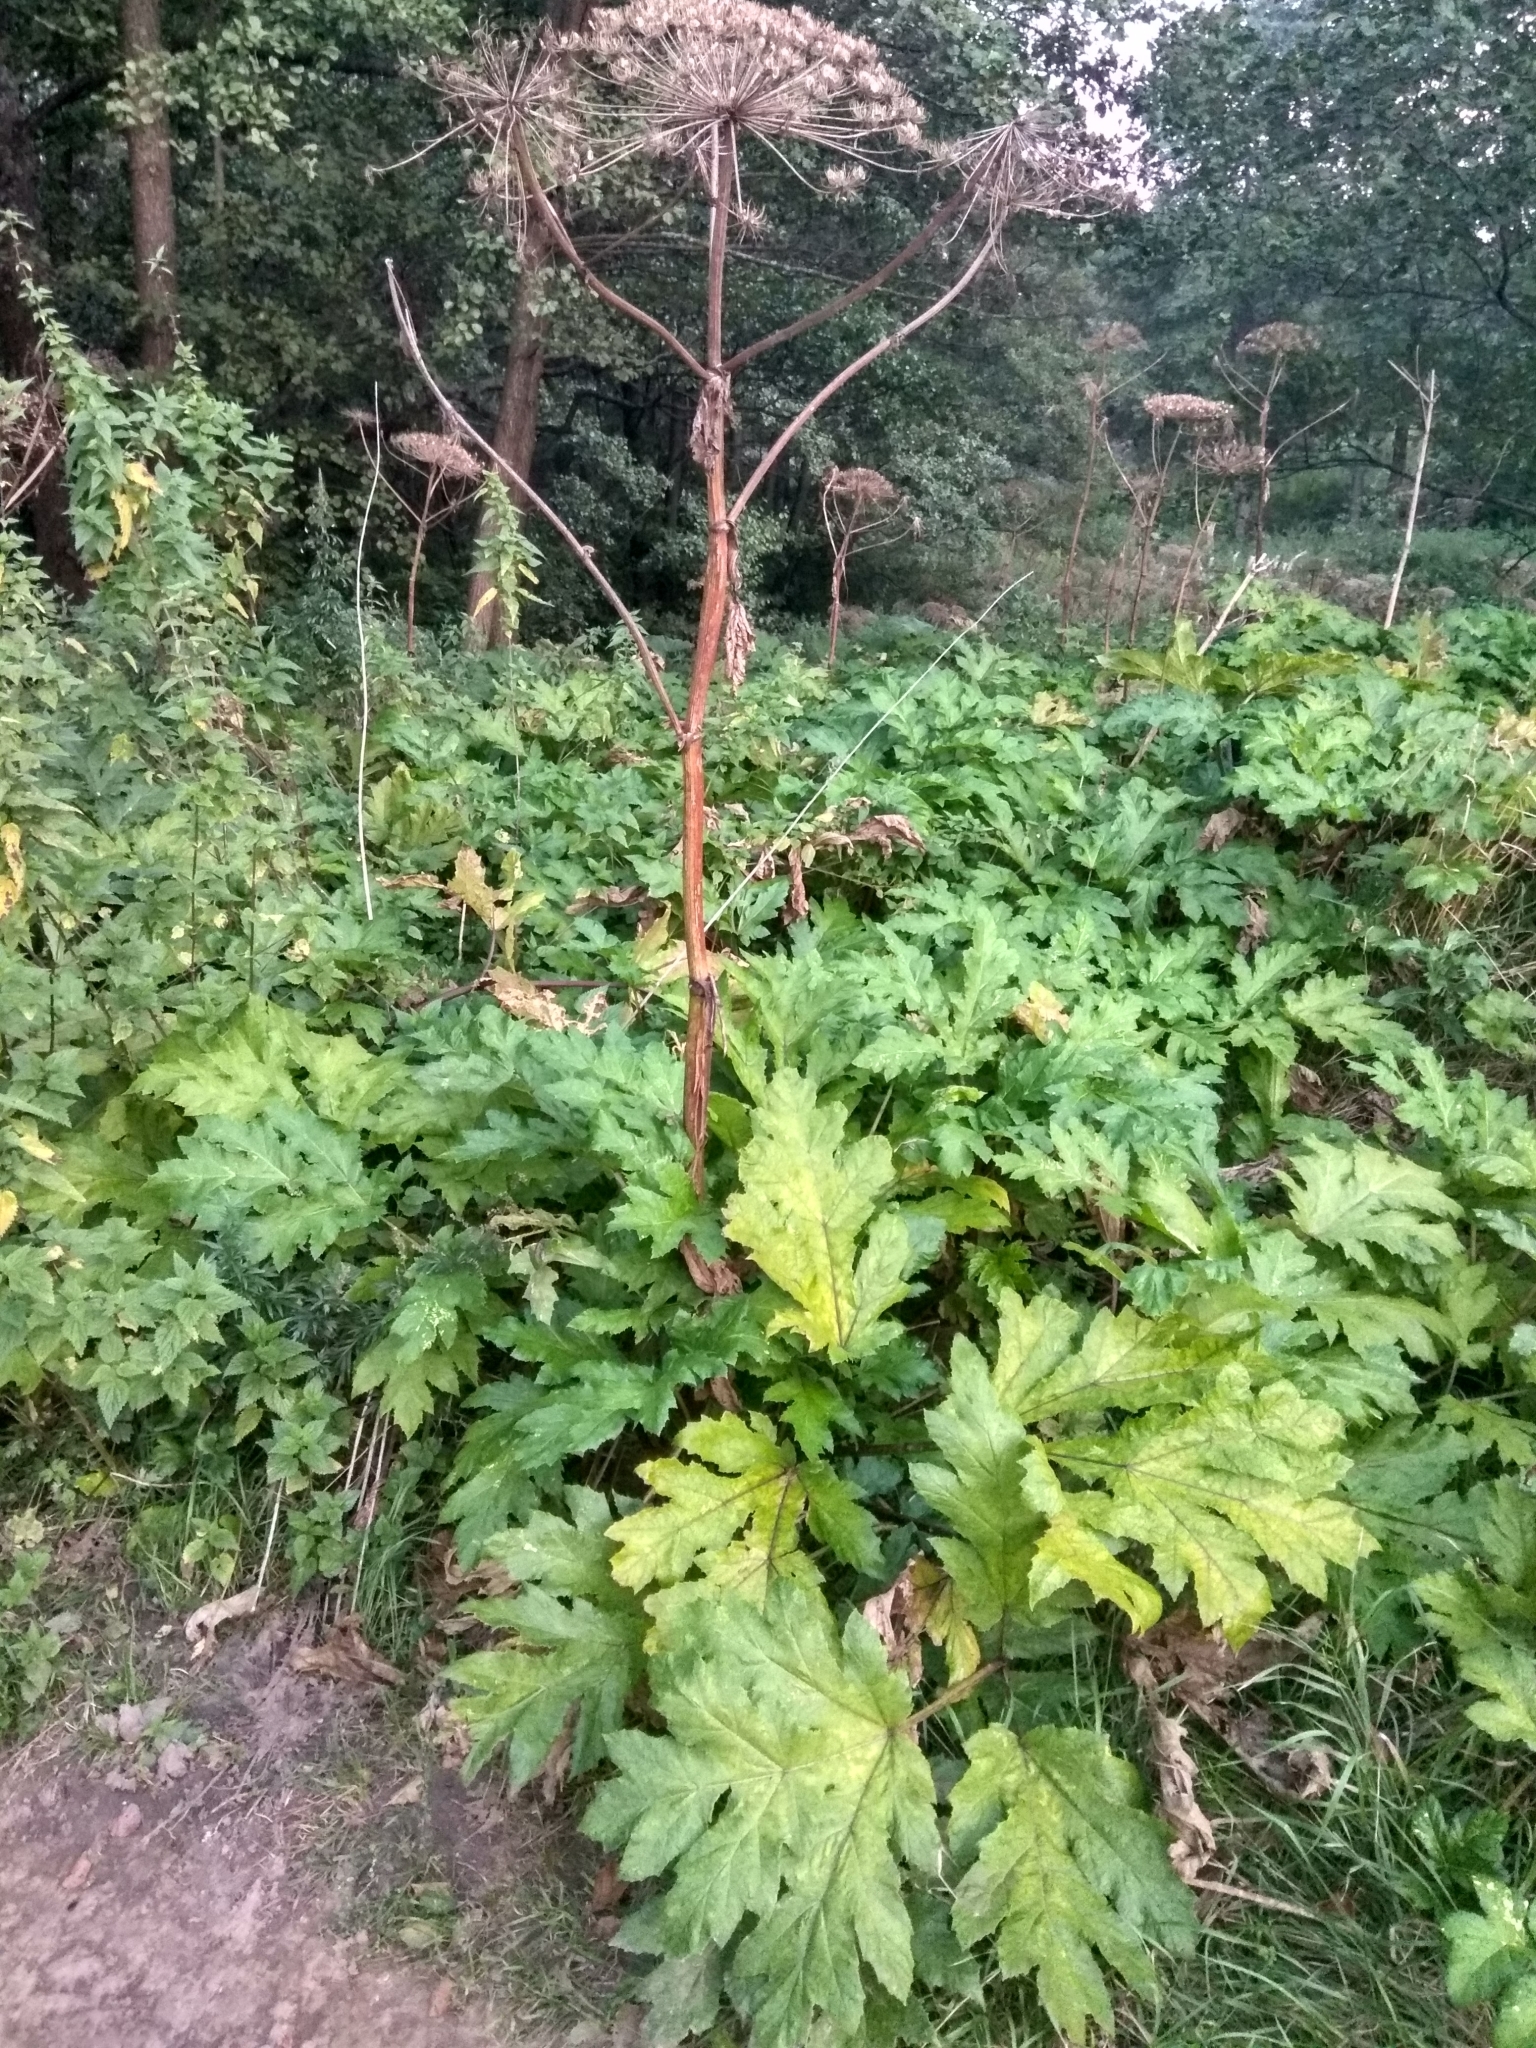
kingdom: Plantae
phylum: Tracheophyta
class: Magnoliopsida
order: Apiales
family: Apiaceae
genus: Heracleum
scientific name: Heracleum sosnowskyi
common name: Sosnowsky's hogweed
